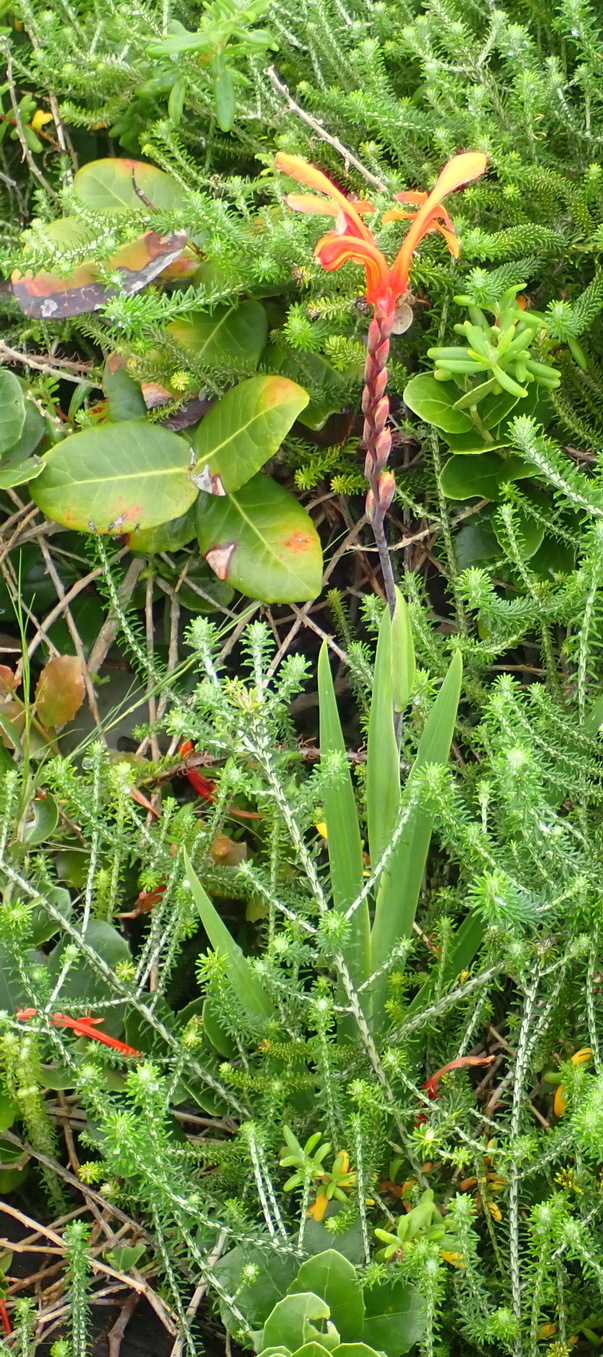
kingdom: Plantae
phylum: Tracheophyta
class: Liliopsida
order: Asparagales
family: Iridaceae
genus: Chasmanthe
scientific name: Chasmanthe aethiopica
